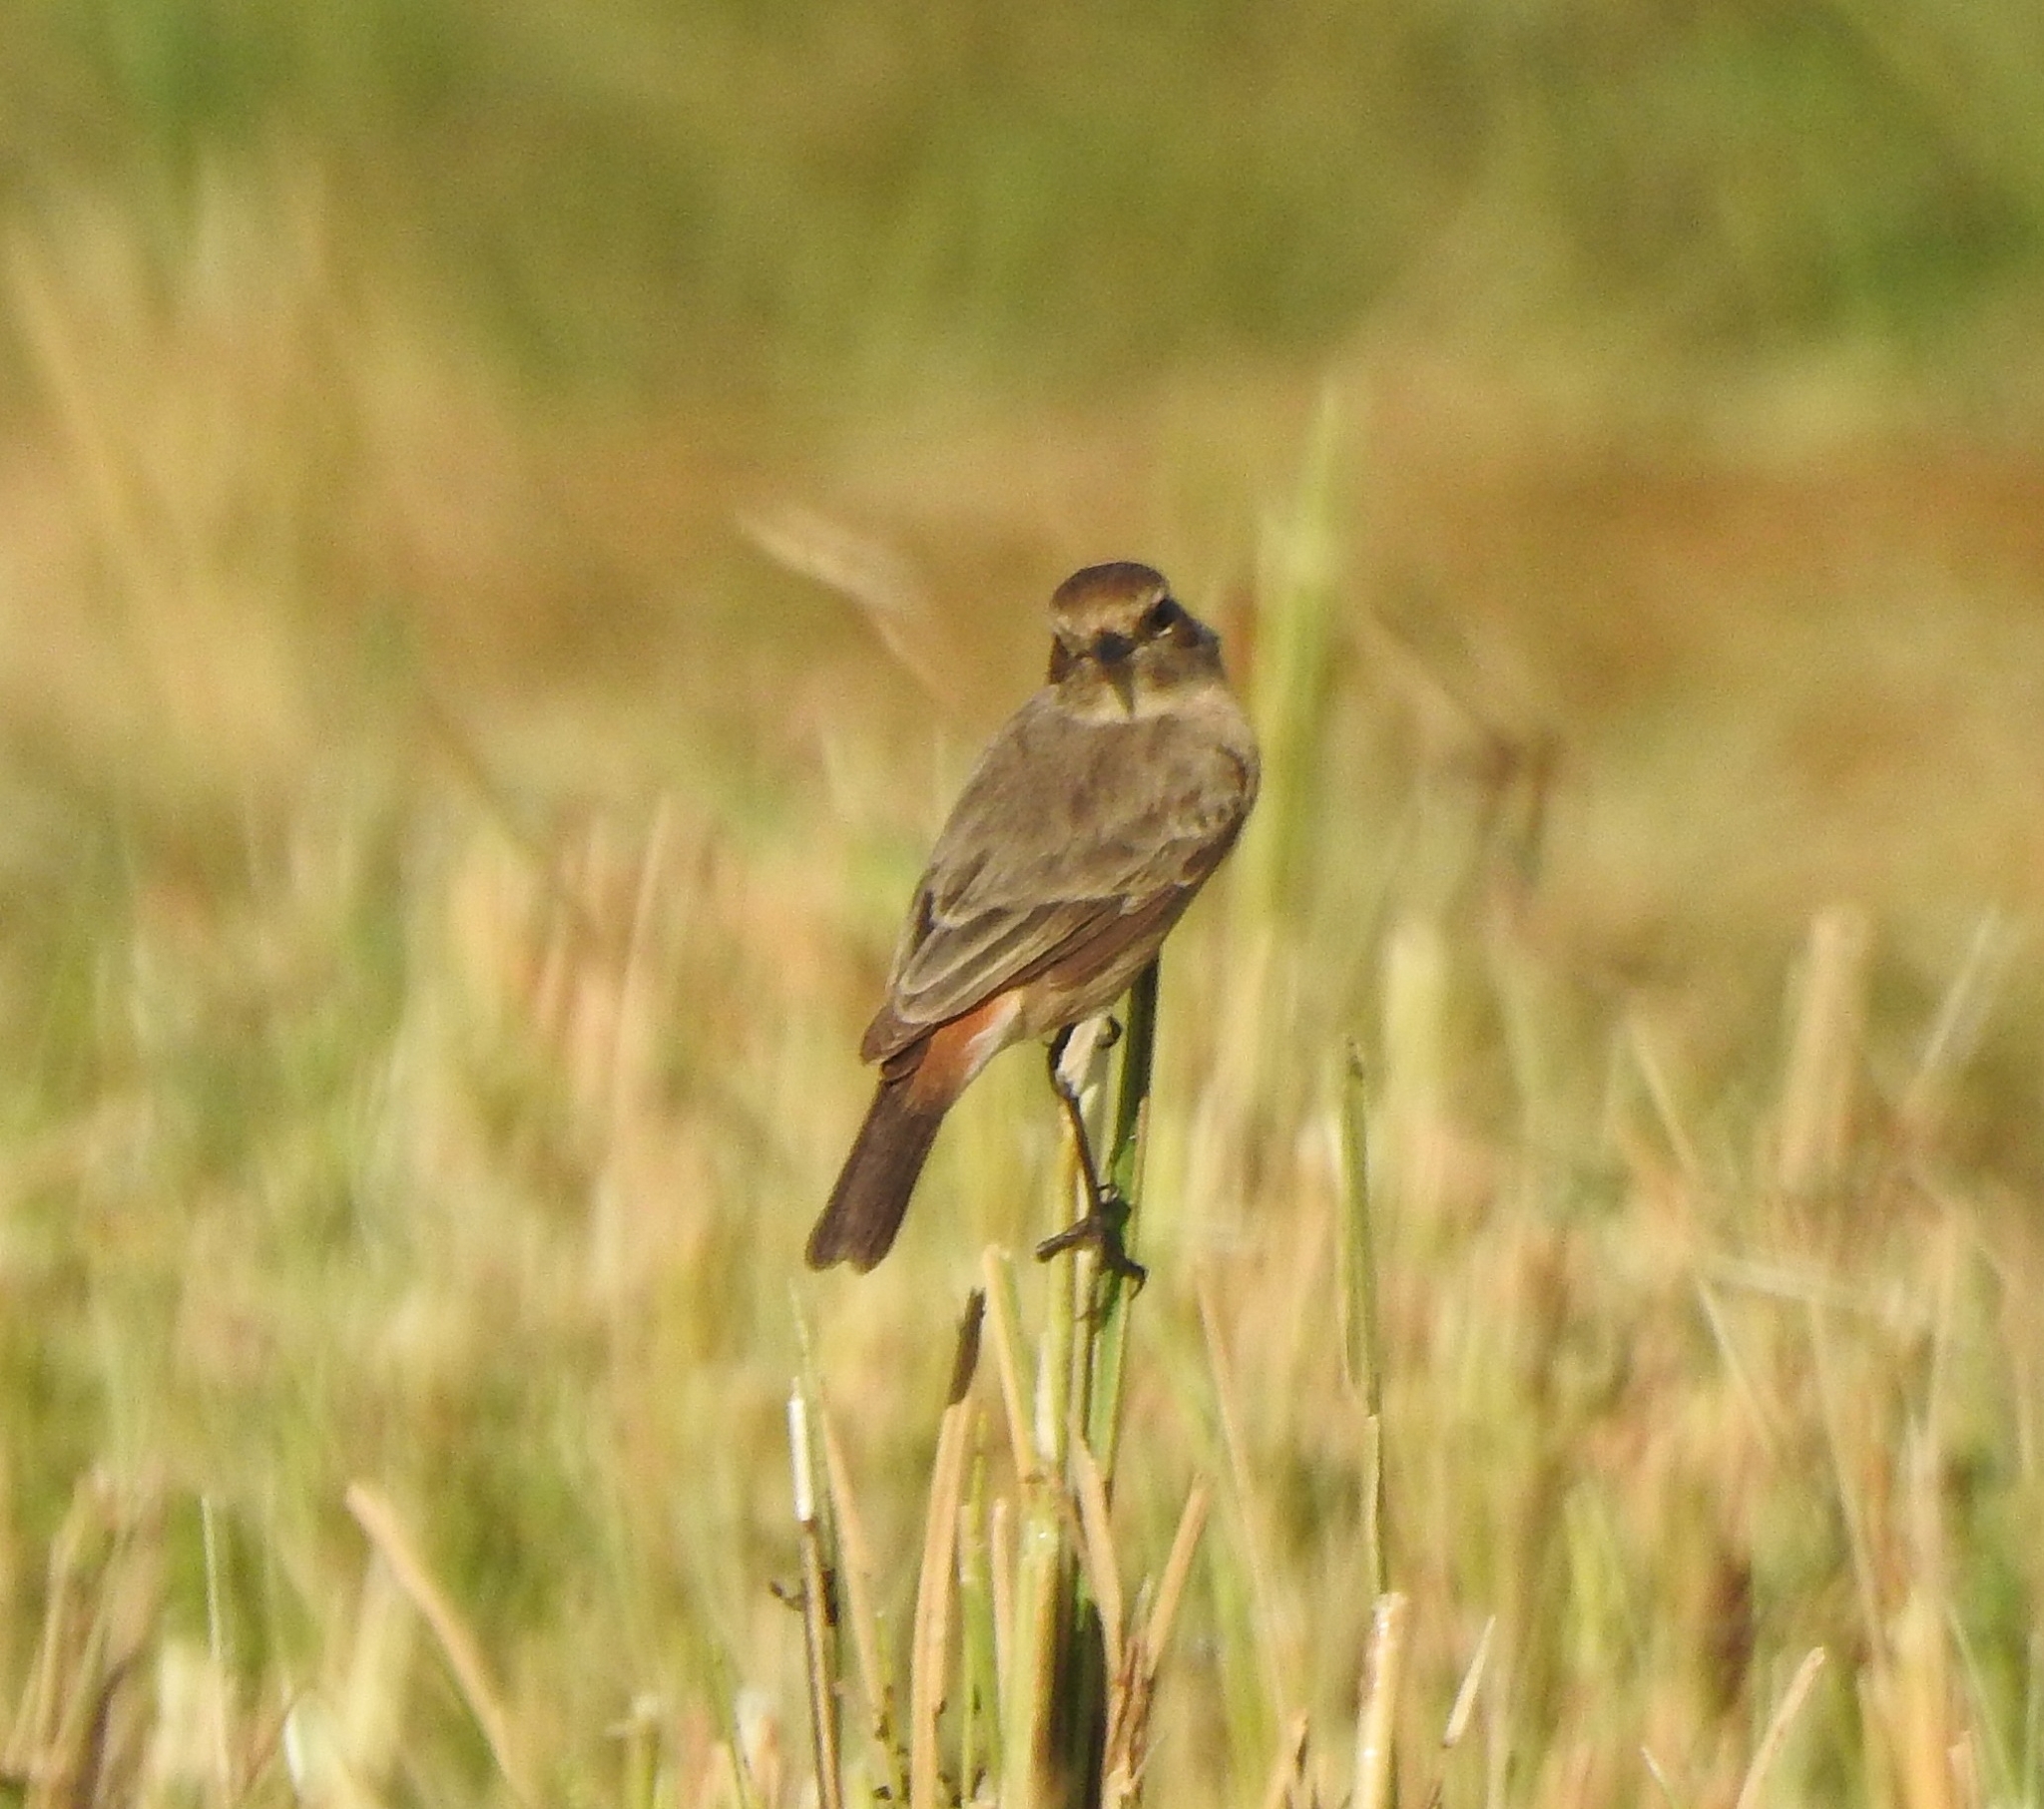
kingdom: Animalia
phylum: Chordata
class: Aves
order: Passeriformes
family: Muscicapidae
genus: Saxicola
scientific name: Saxicola caprata
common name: Pied bush chat
